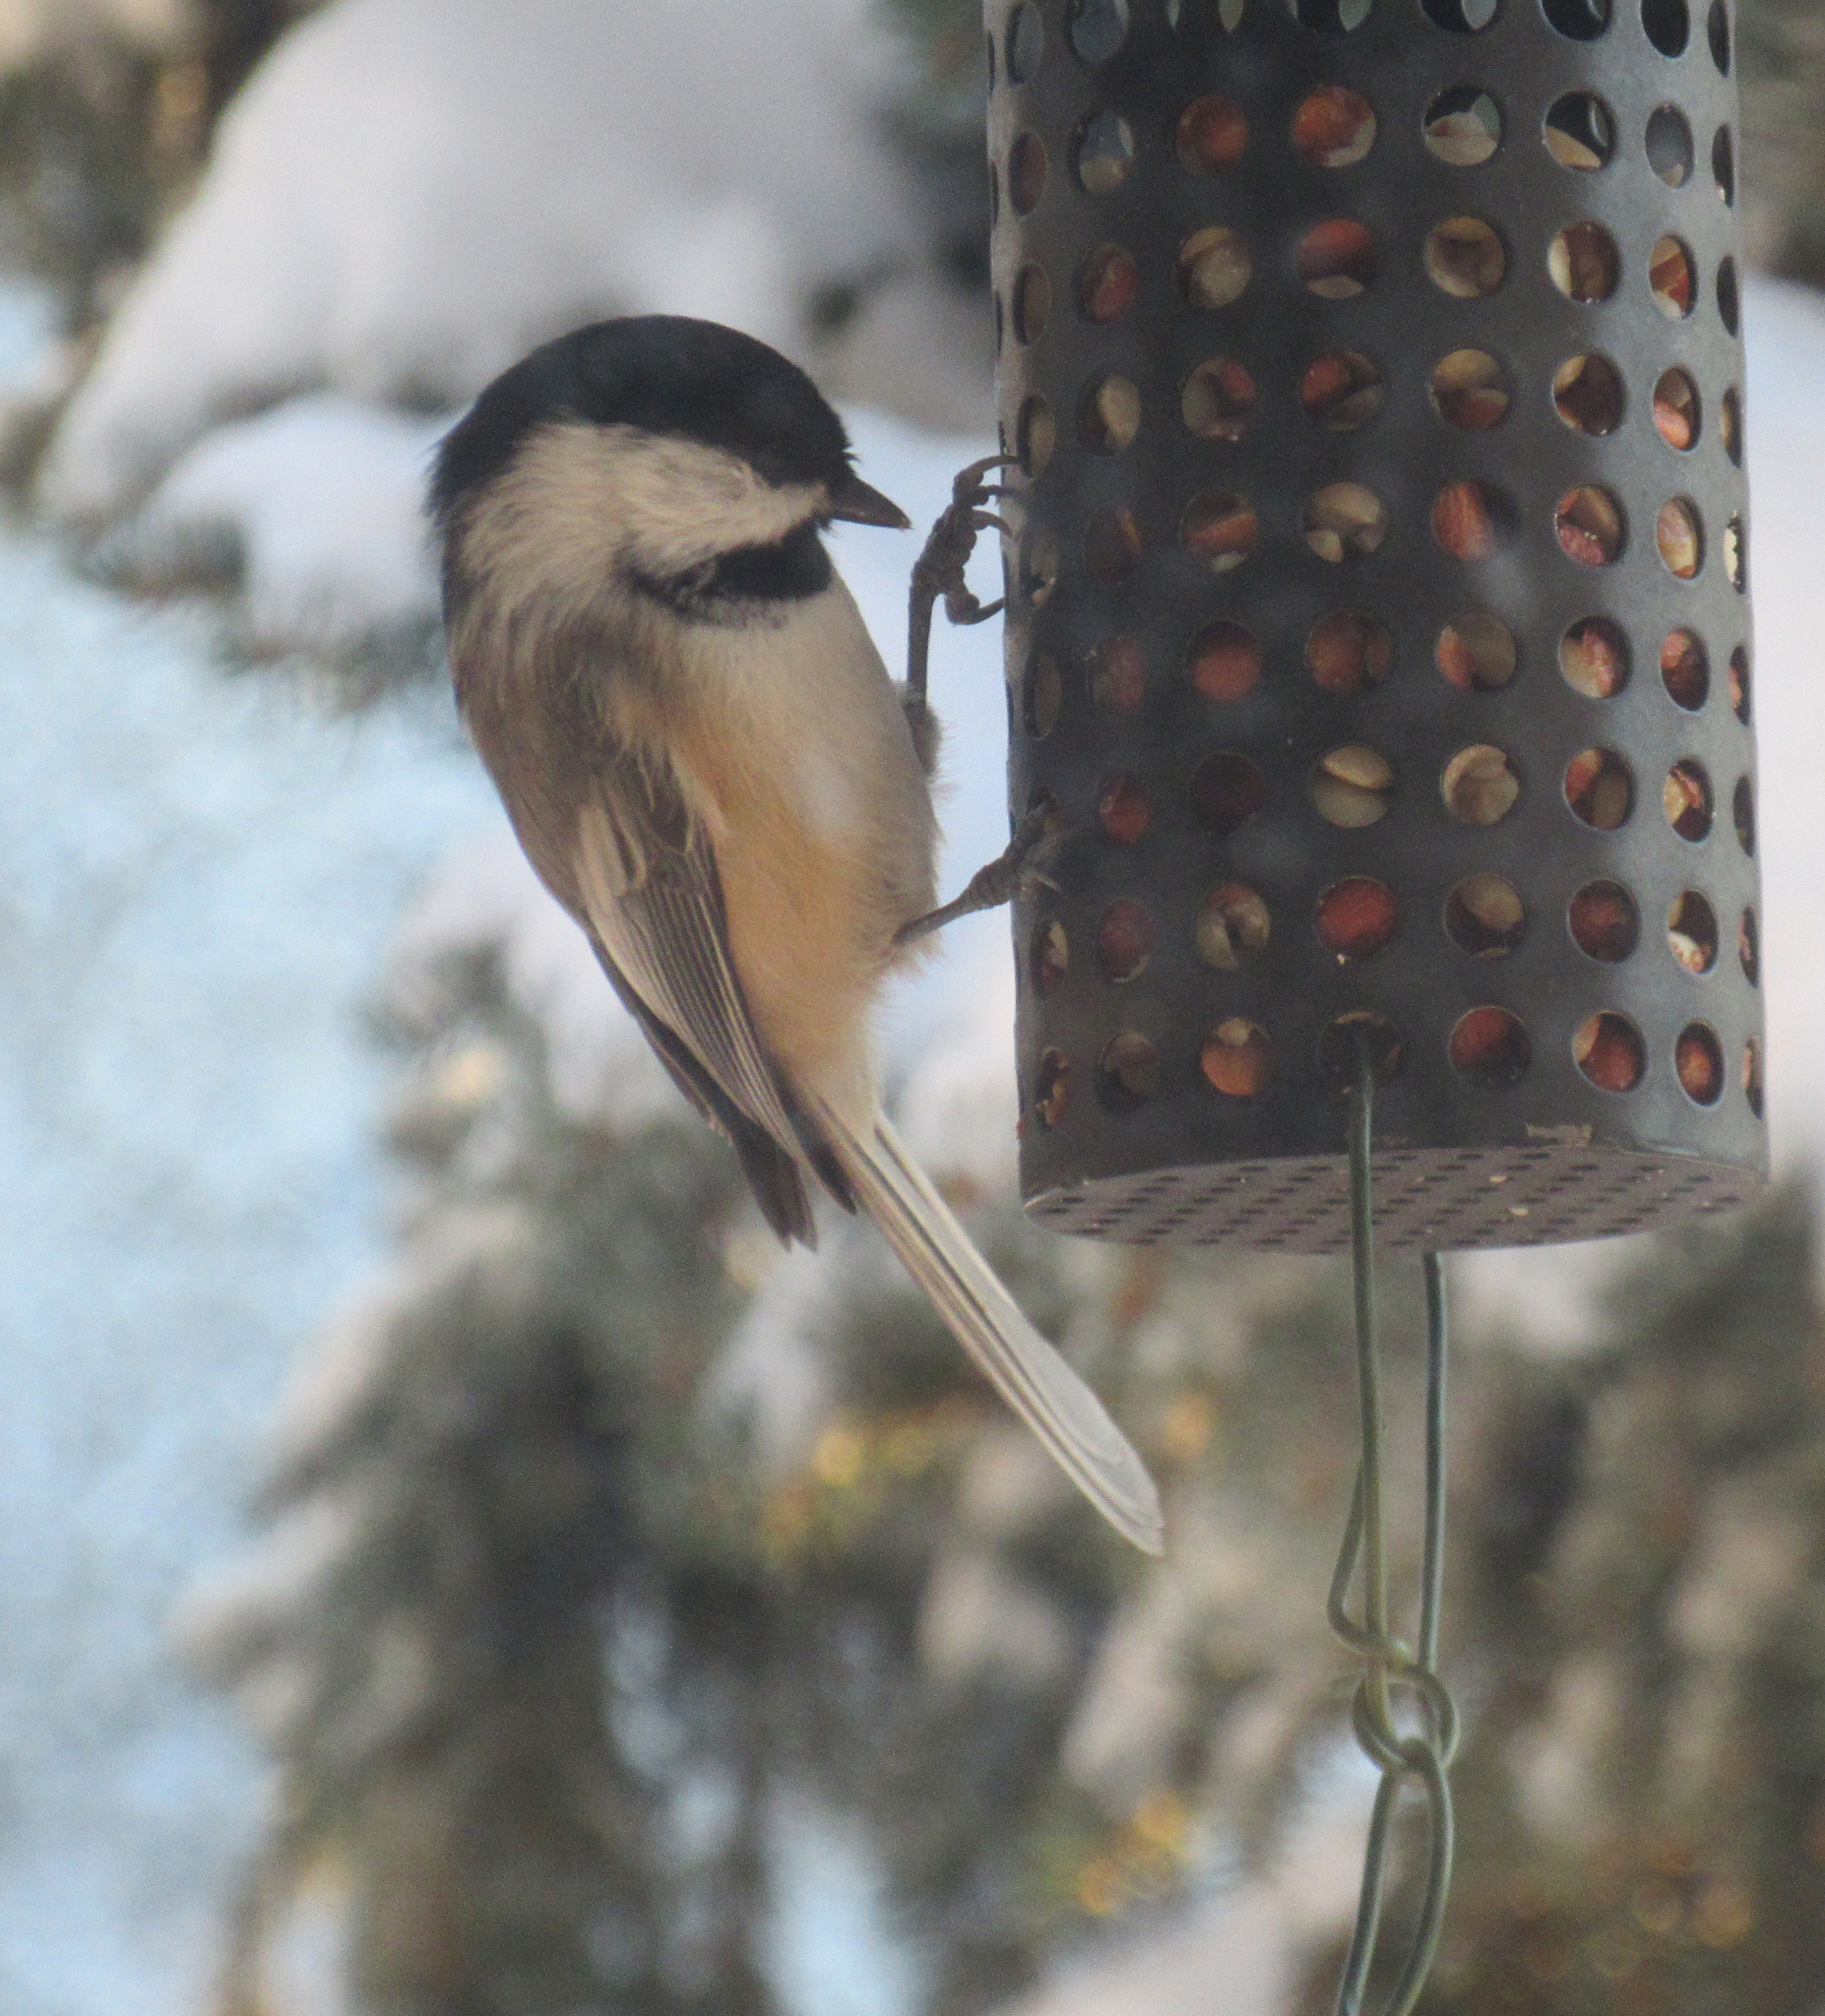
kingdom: Animalia
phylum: Chordata
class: Aves
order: Passeriformes
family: Paridae
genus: Poecile
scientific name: Poecile atricapillus
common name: Black-capped chickadee
